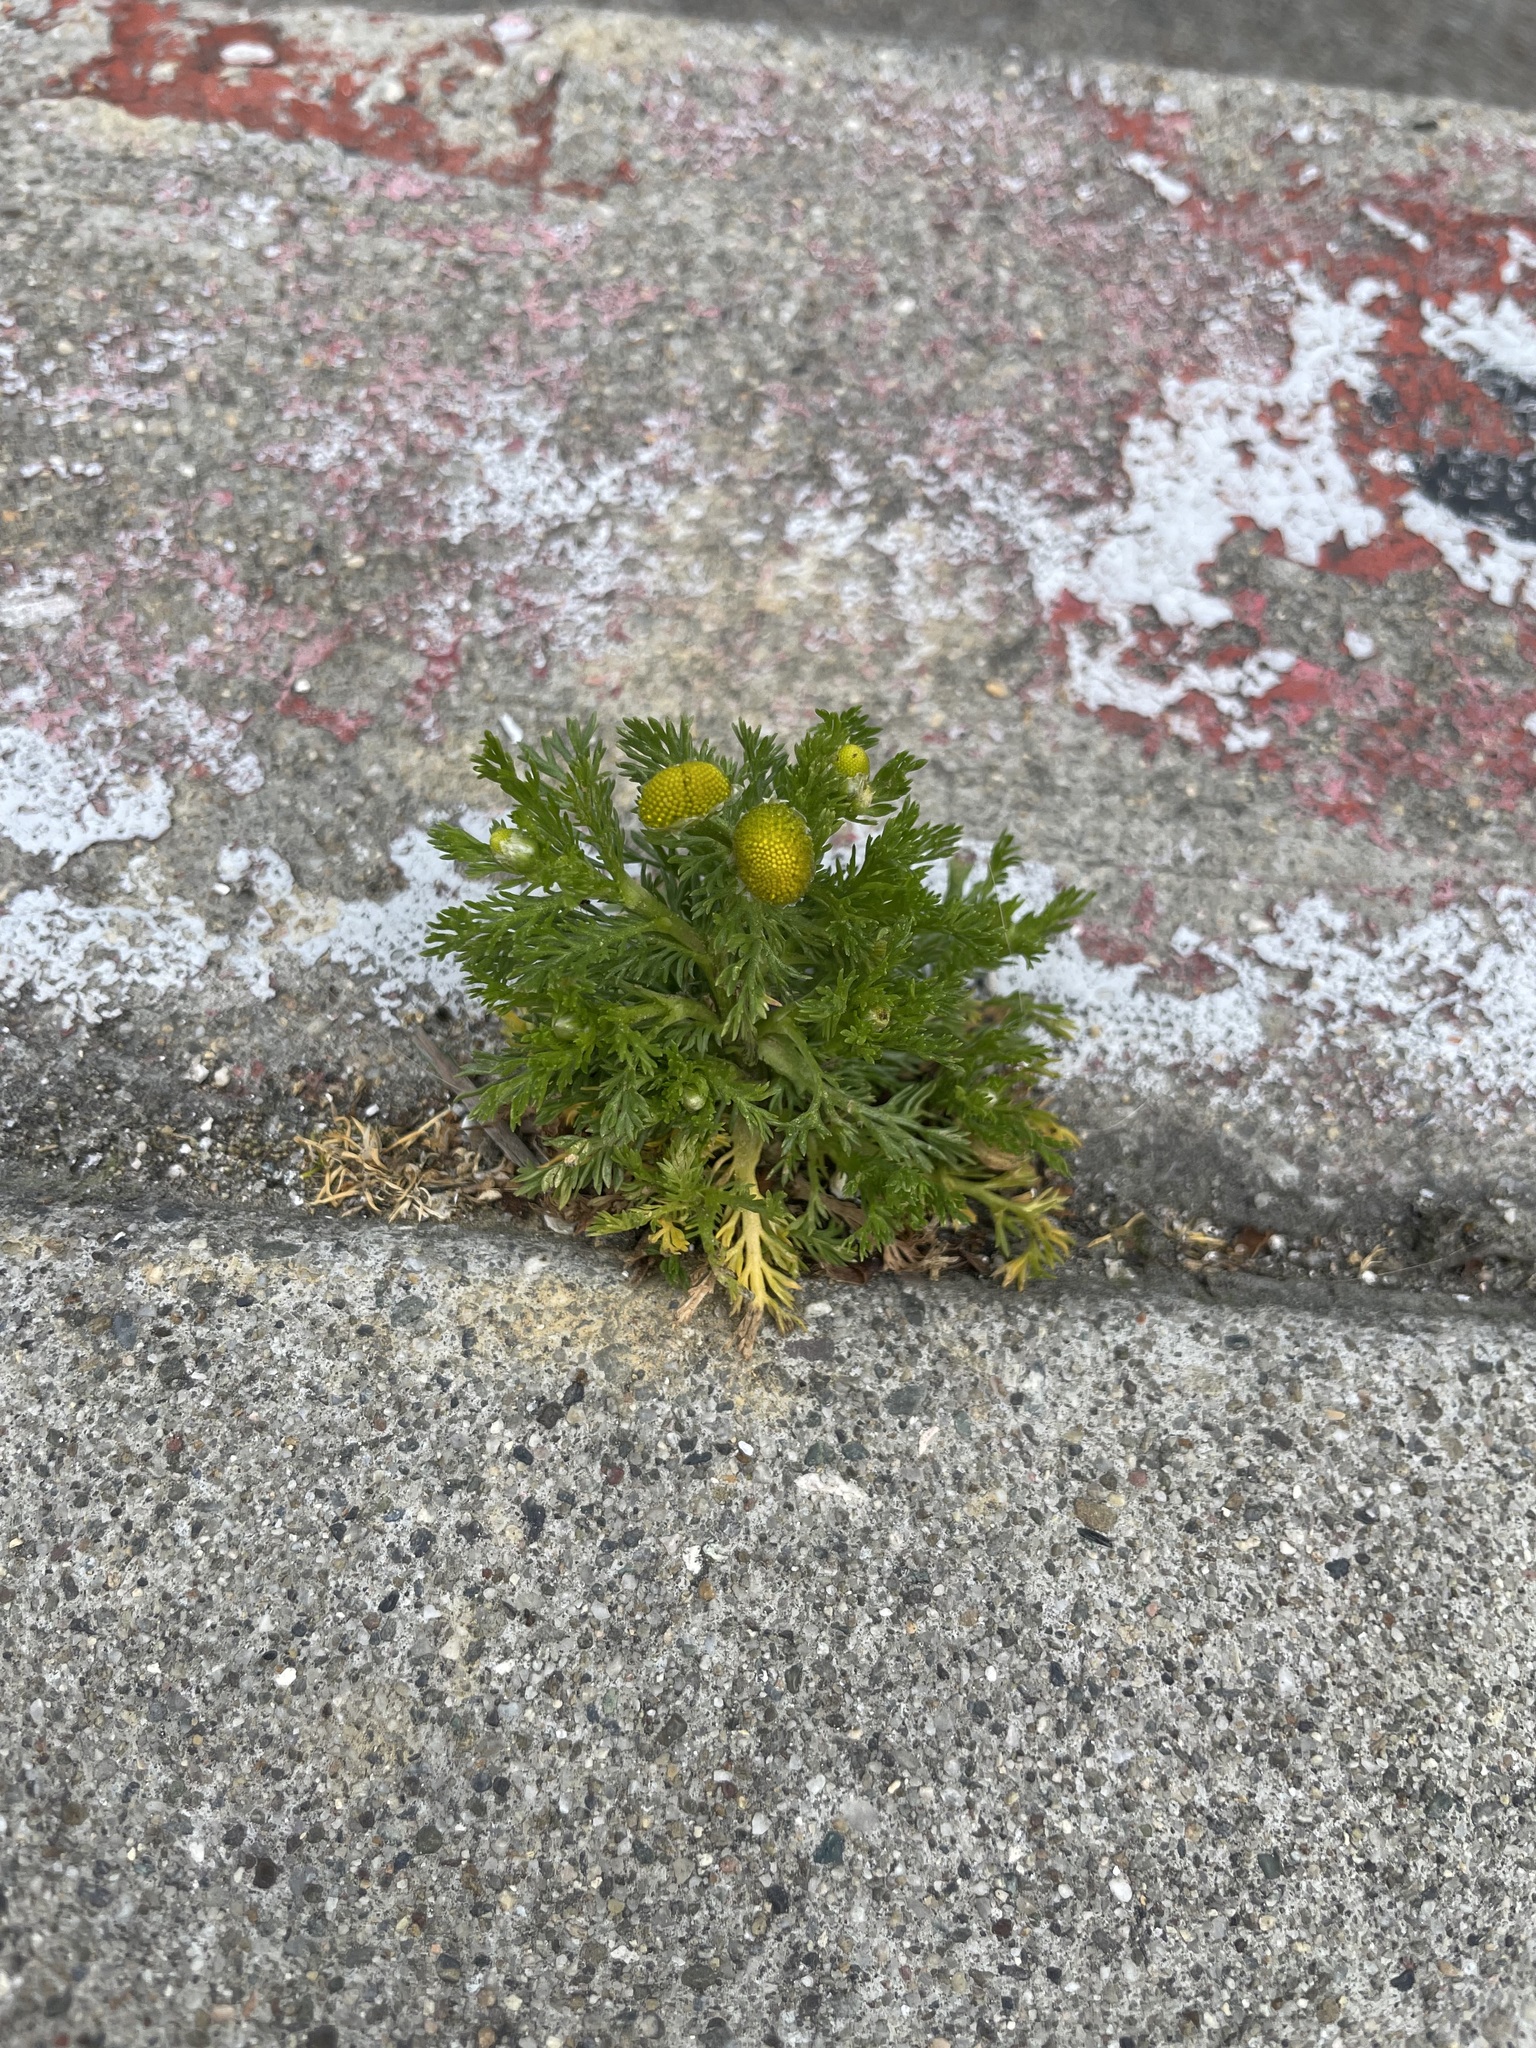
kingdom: Plantae
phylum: Tracheophyta
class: Magnoliopsida
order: Asterales
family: Asteraceae
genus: Matricaria
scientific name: Matricaria discoidea
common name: Disc mayweed
